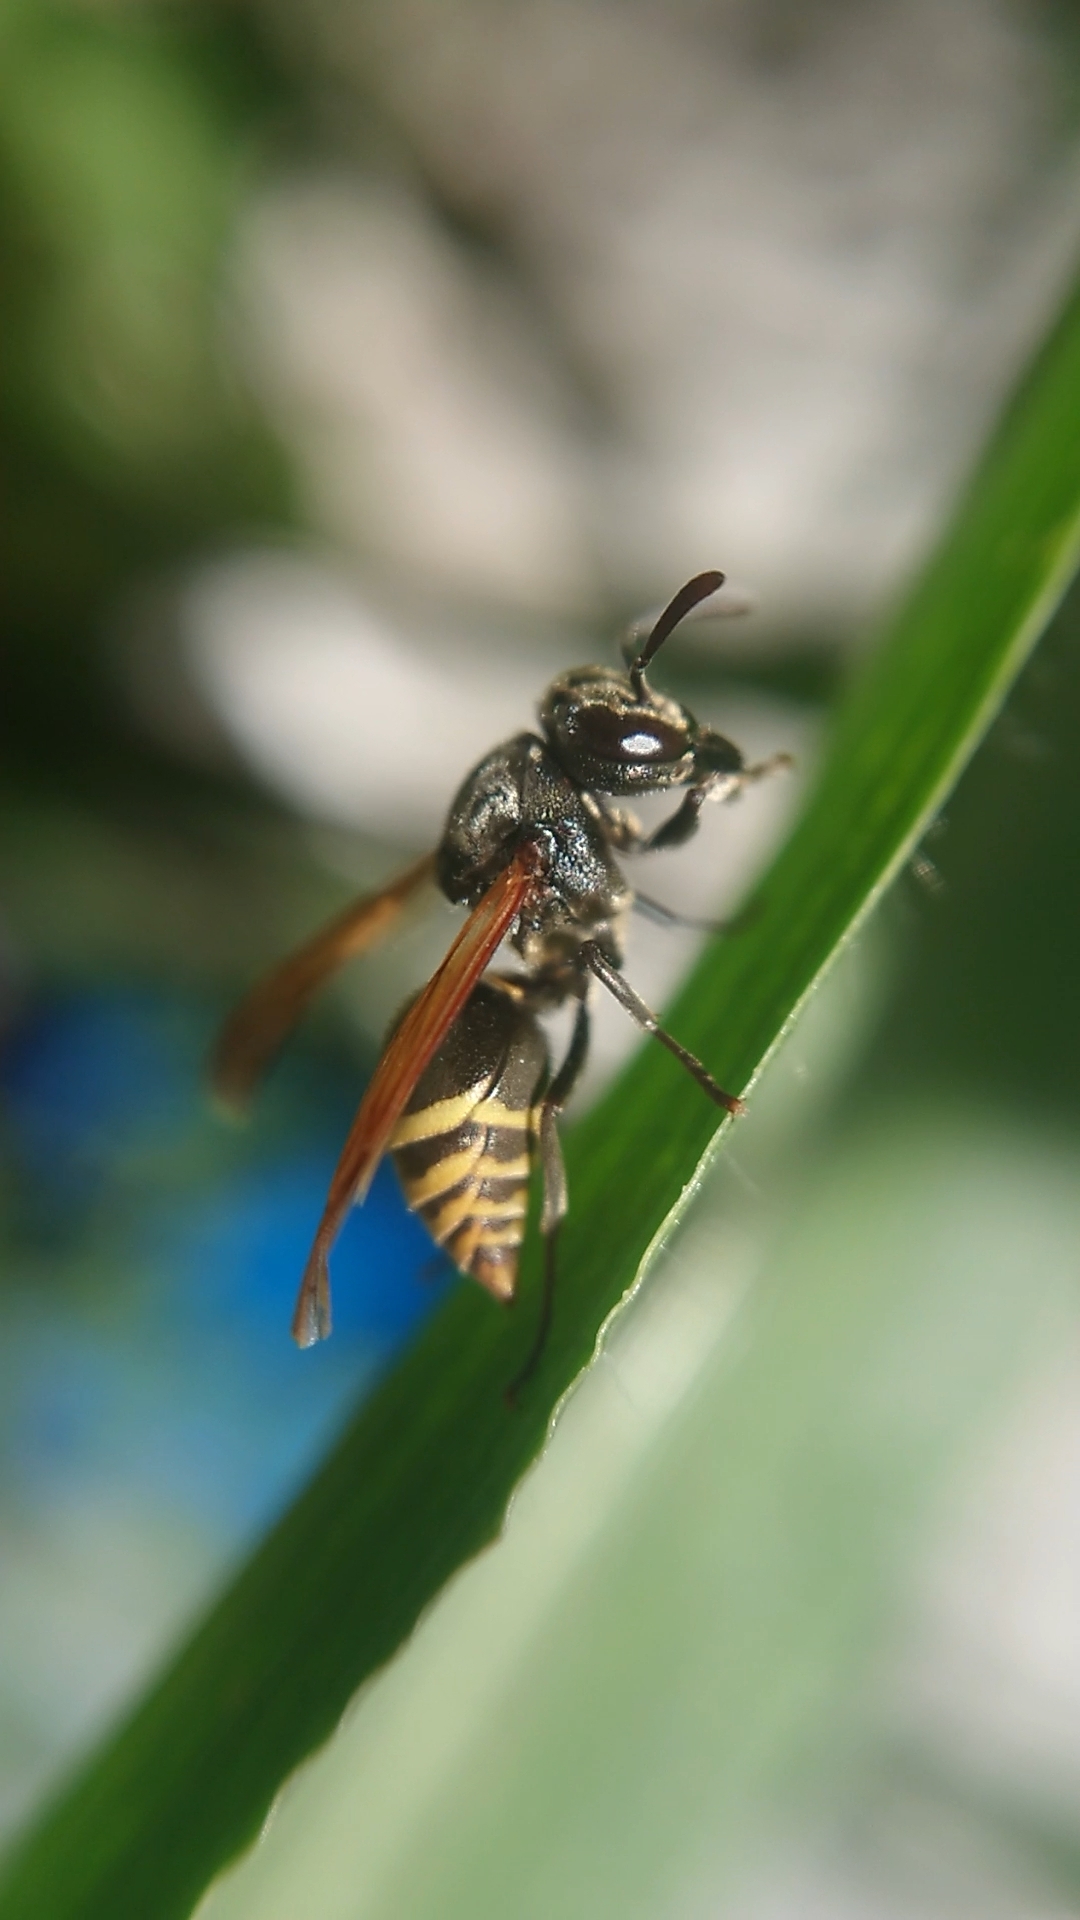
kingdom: Animalia
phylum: Arthropoda
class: Insecta
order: Hymenoptera
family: Vespidae
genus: Brachygastra
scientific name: Brachygastra mellifica
